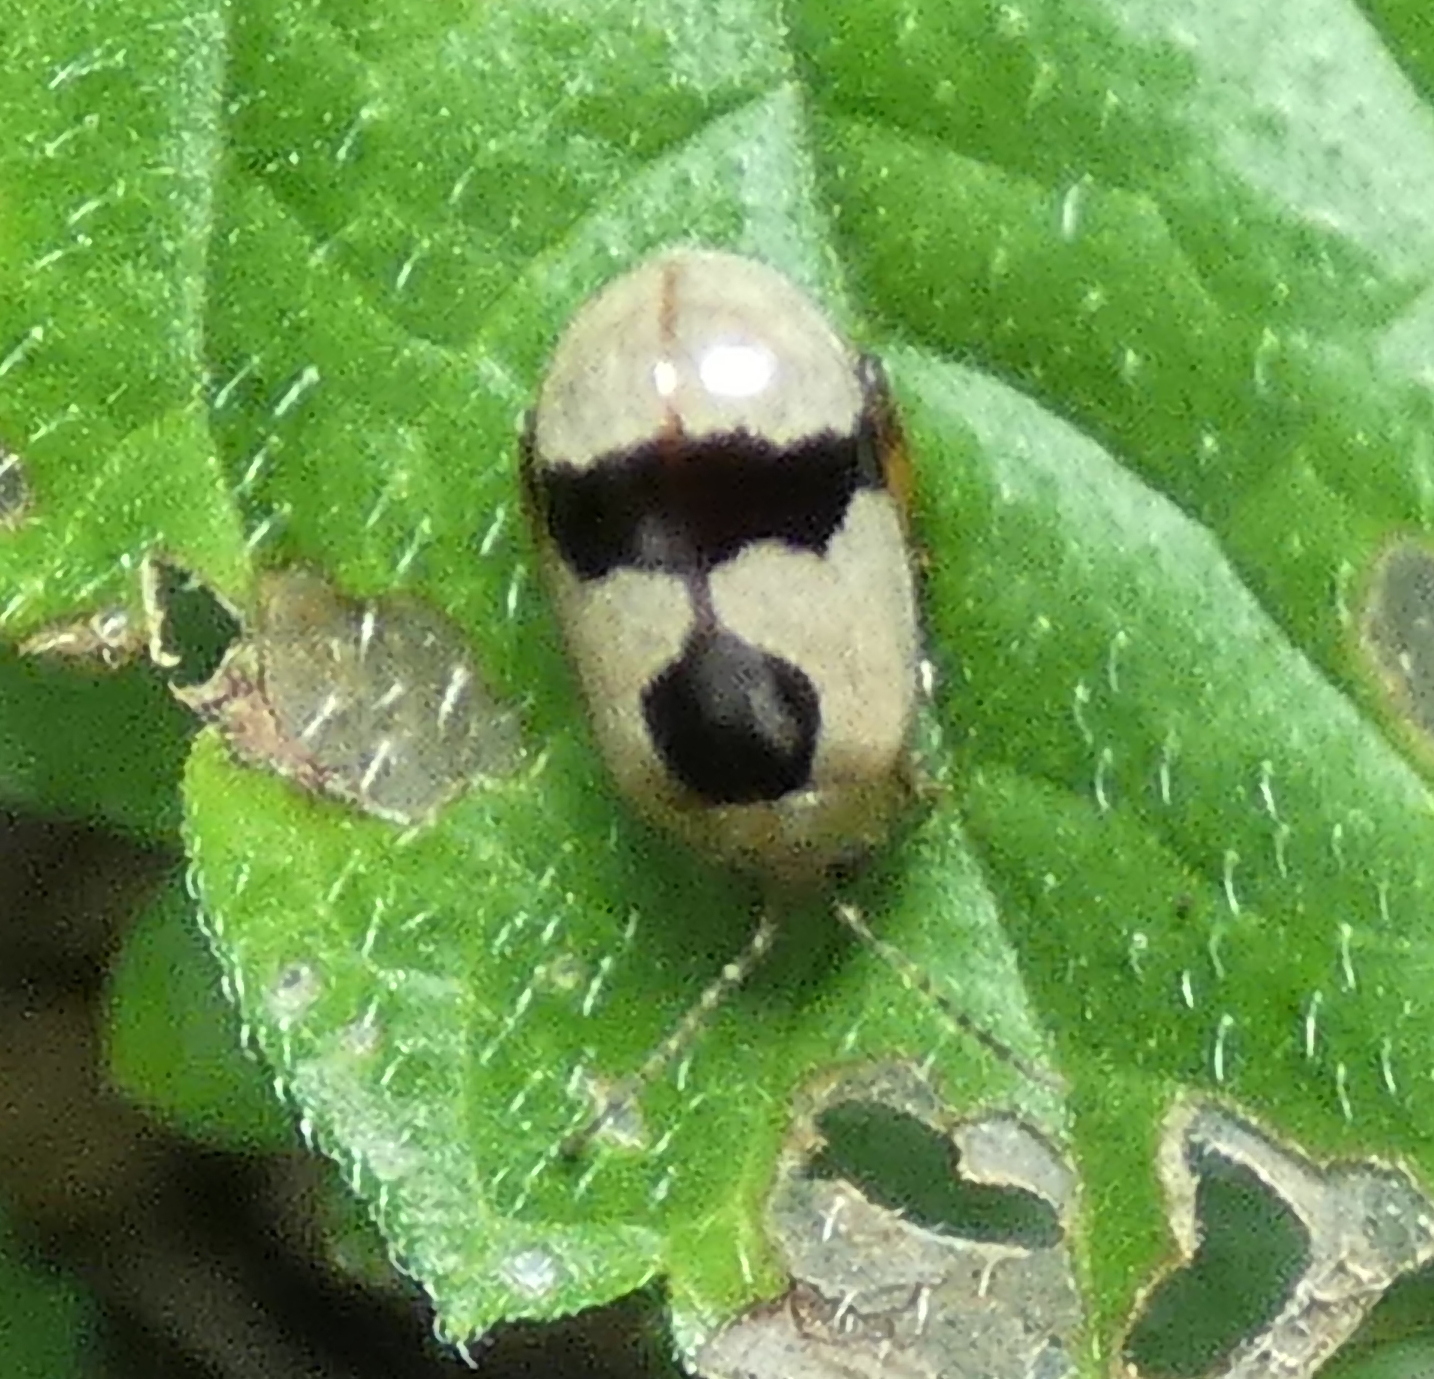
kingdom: Animalia
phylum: Arthropoda
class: Insecta
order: Coleoptera
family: Chrysomelidae
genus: Alagoasa
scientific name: Alagoasa
